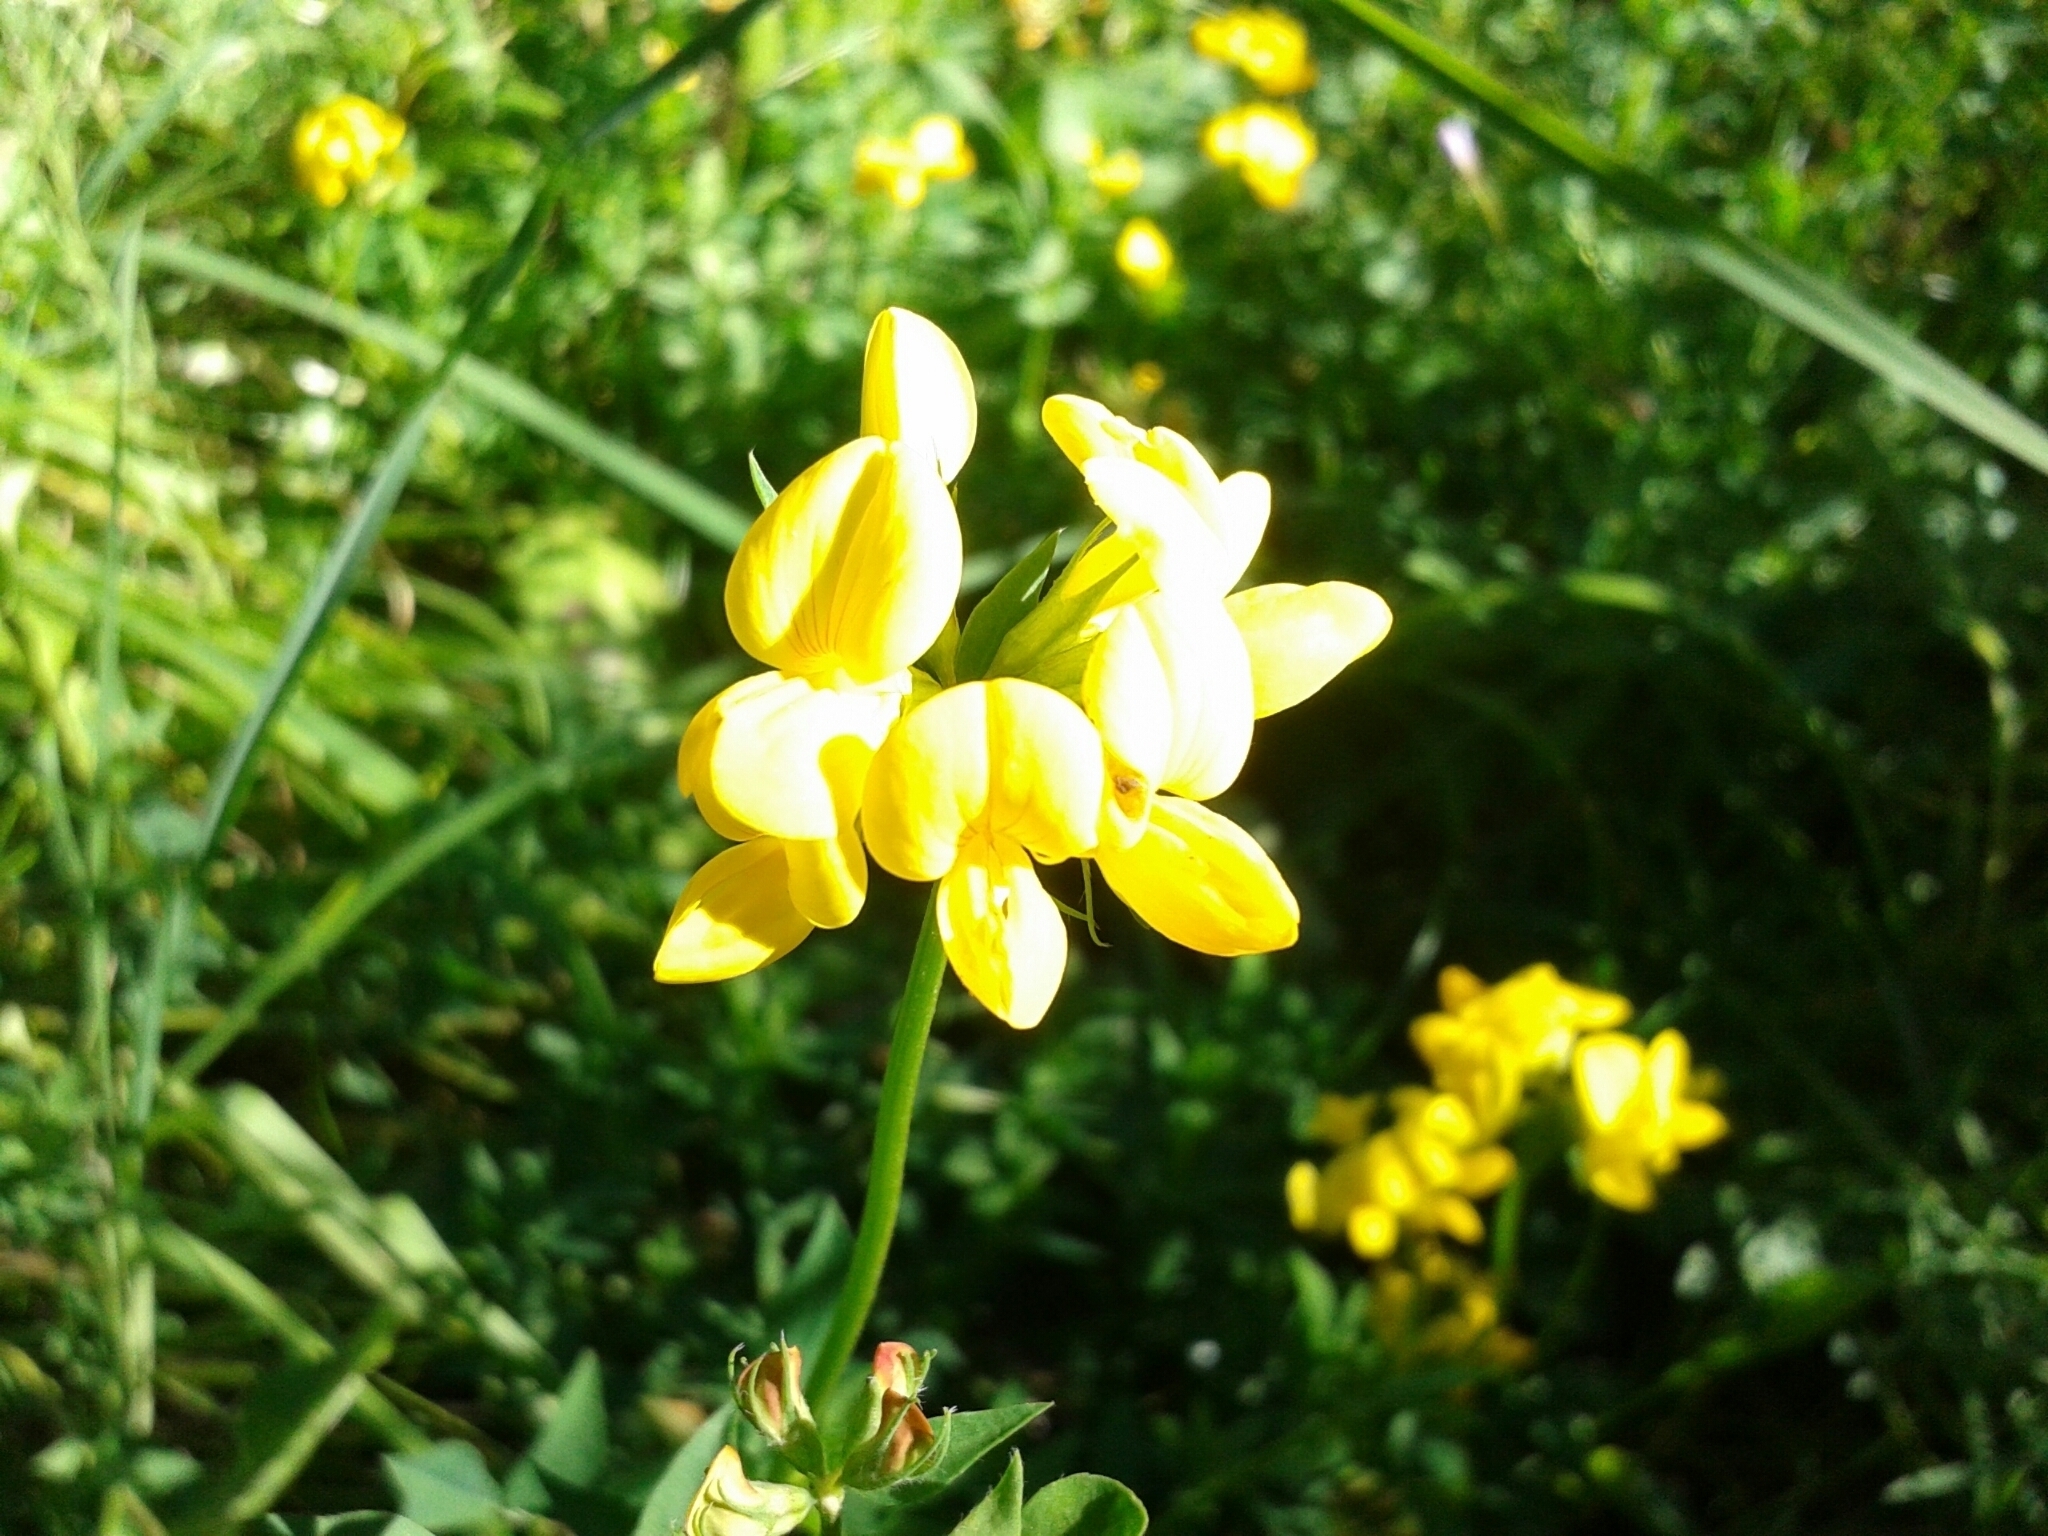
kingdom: Plantae
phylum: Tracheophyta
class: Magnoliopsida
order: Fabales
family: Fabaceae
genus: Lotus
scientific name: Lotus corniculatus
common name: Common bird's-foot-trefoil
